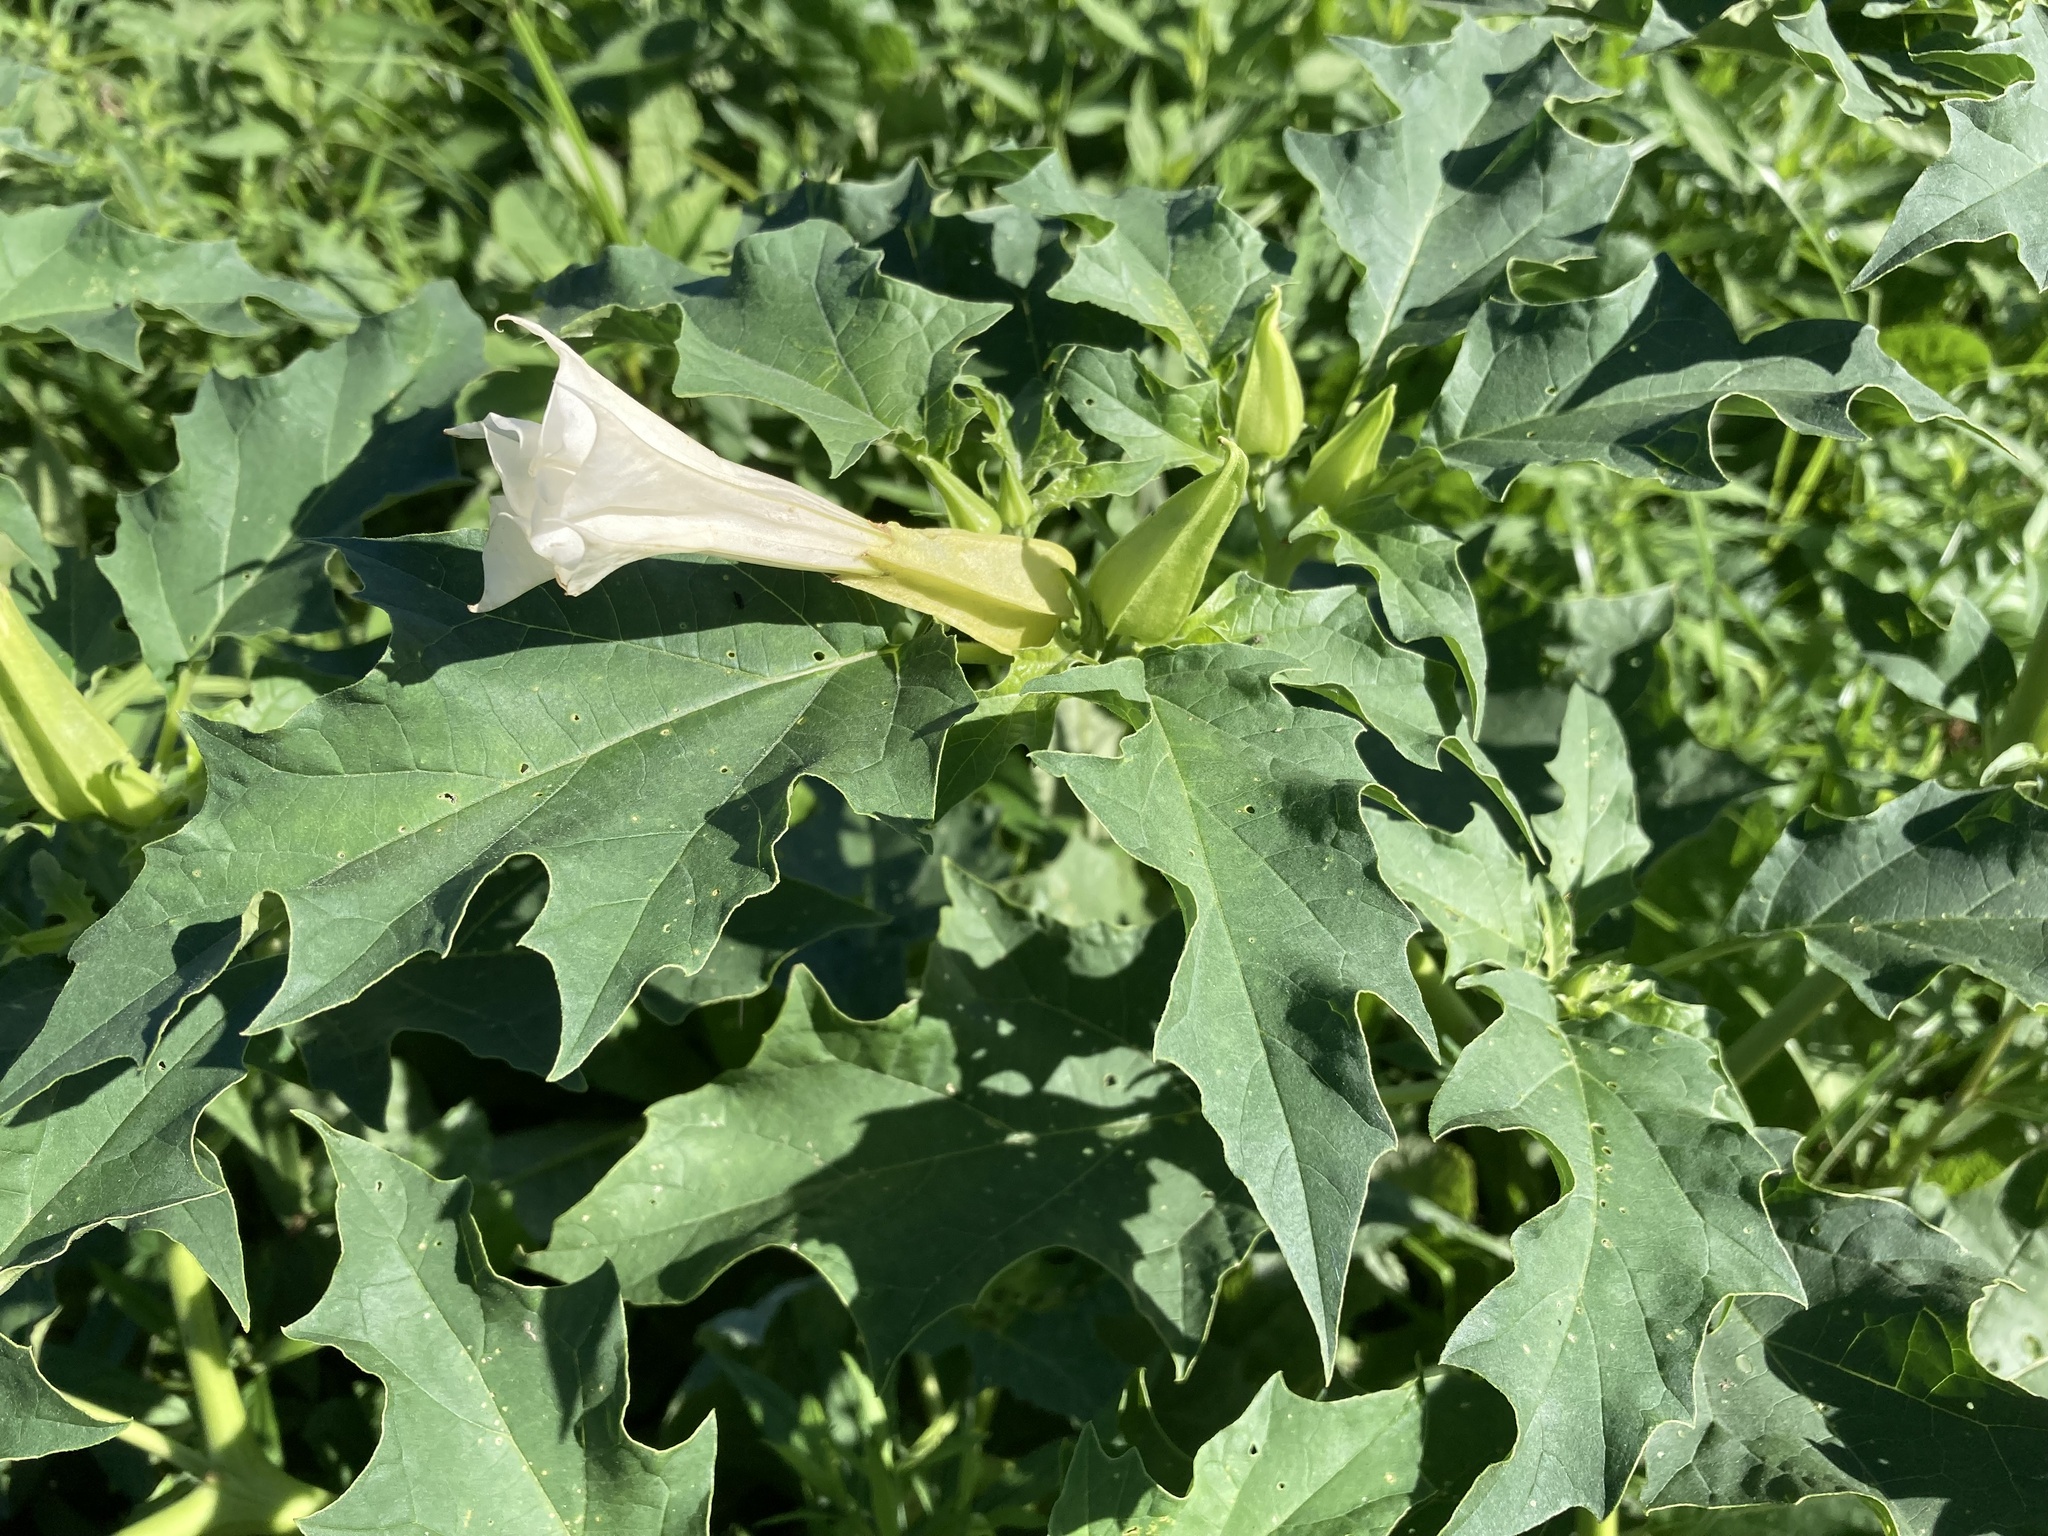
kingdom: Plantae
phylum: Tracheophyta
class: Magnoliopsida
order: Solanales
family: Solanaceae
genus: Datura
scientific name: Datura stramonium
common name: Thorn-apple
